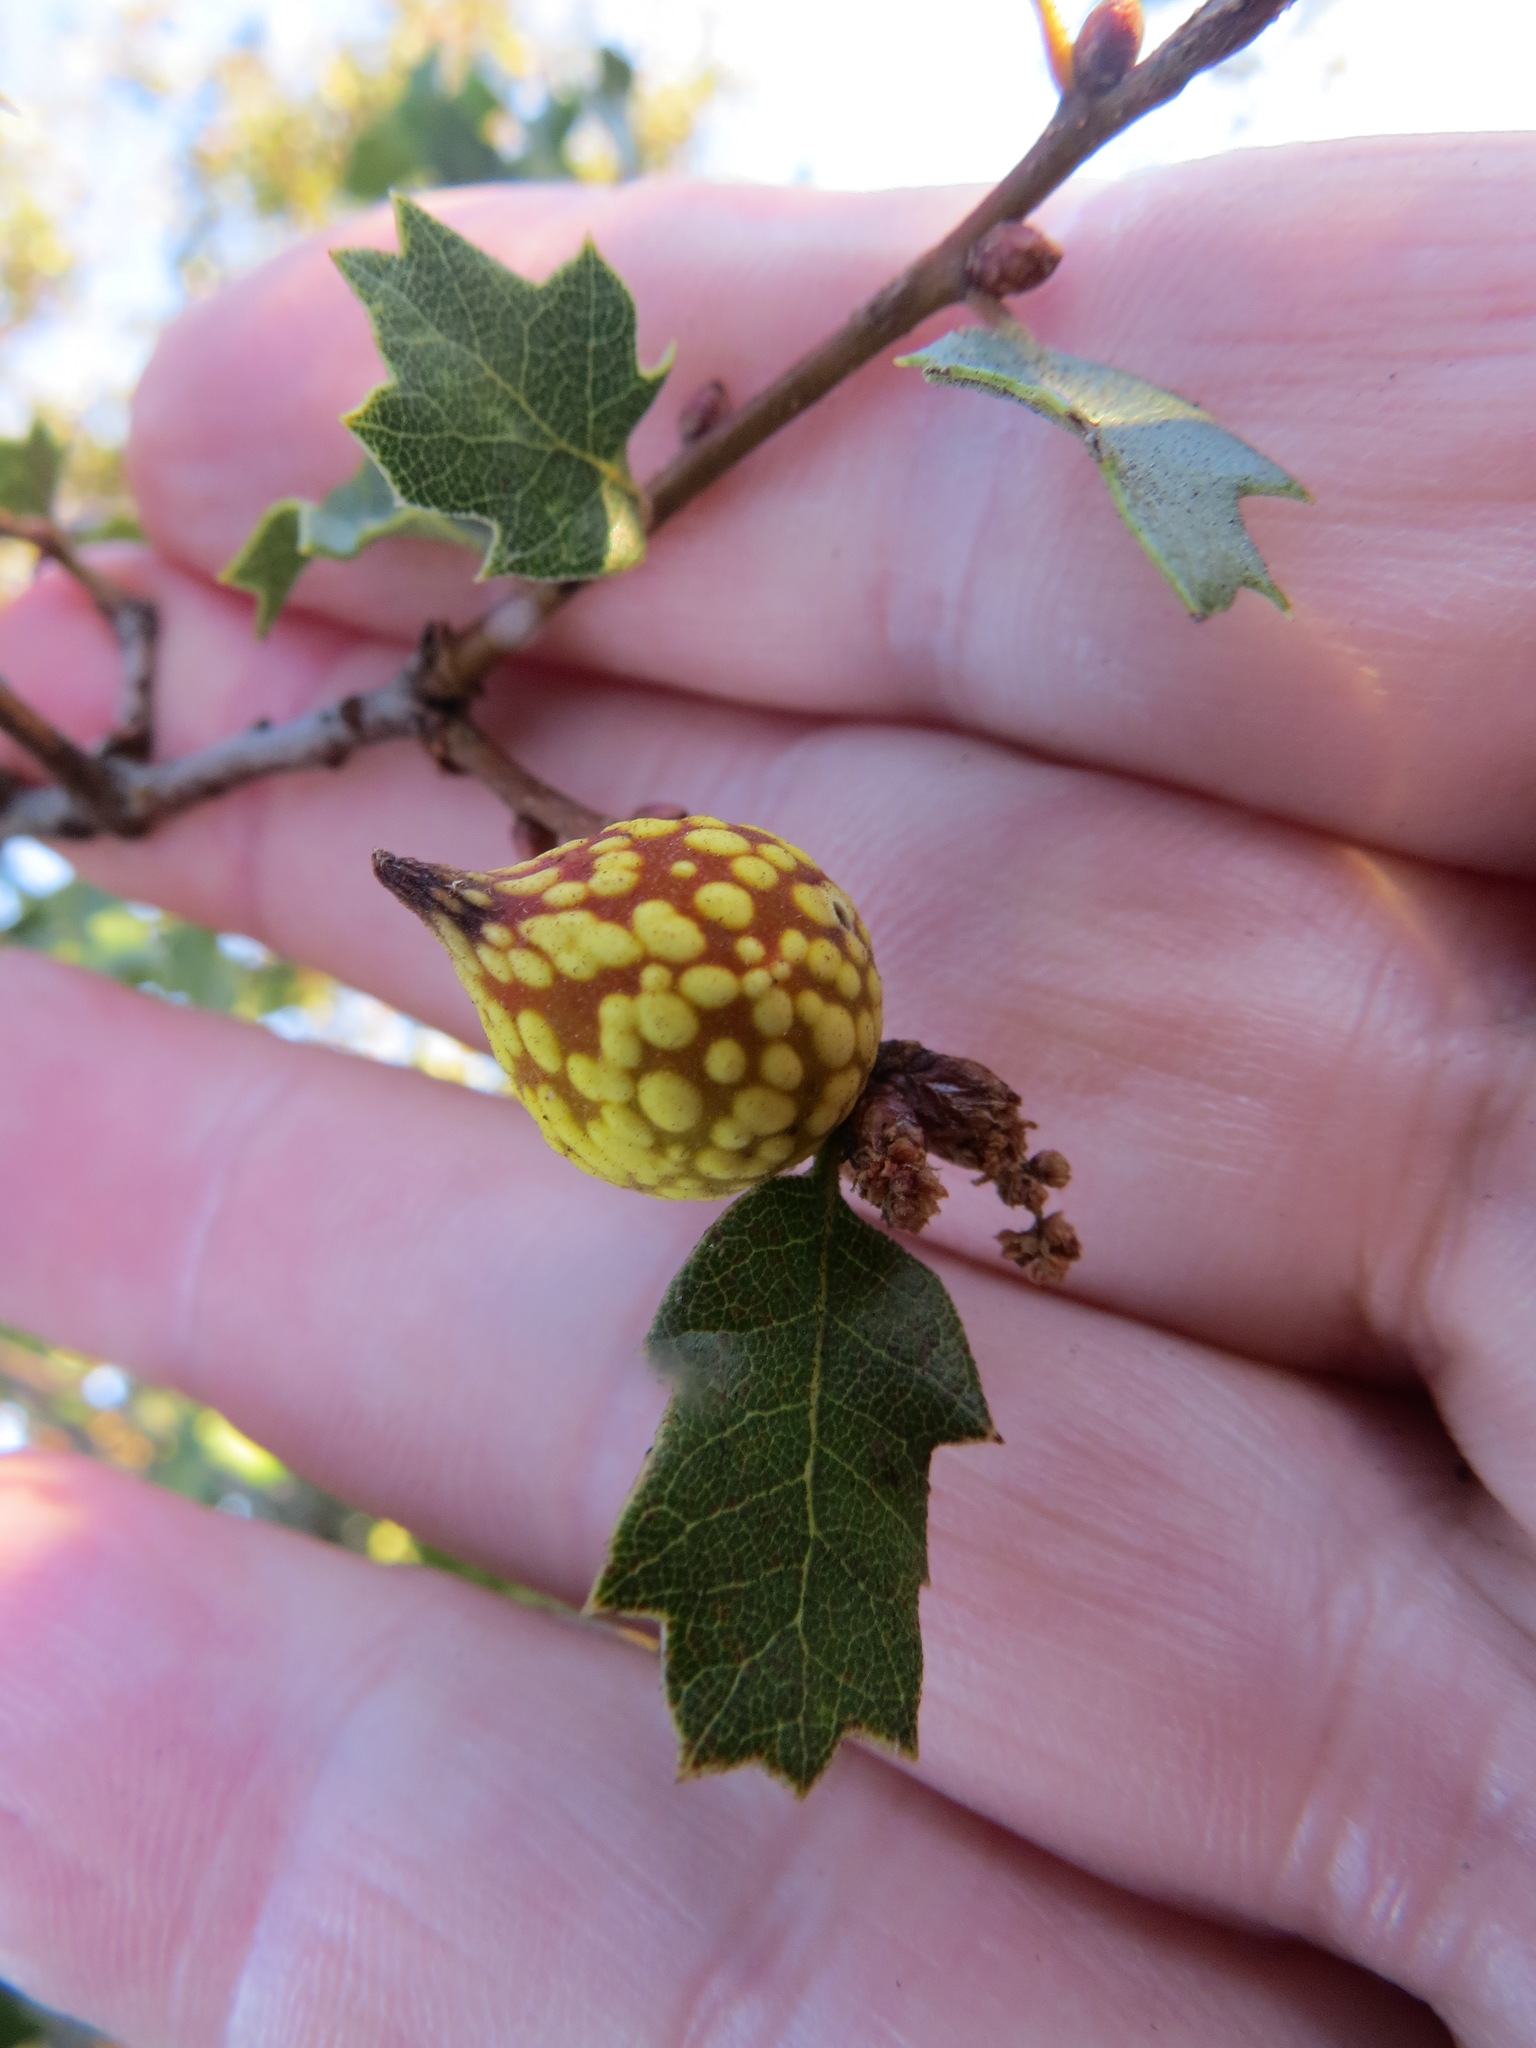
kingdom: Animalia
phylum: Arthropoda
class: Insecta
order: Hymenoptera
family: Cynipidae
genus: Burnettweldia
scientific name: Burnettweldia
